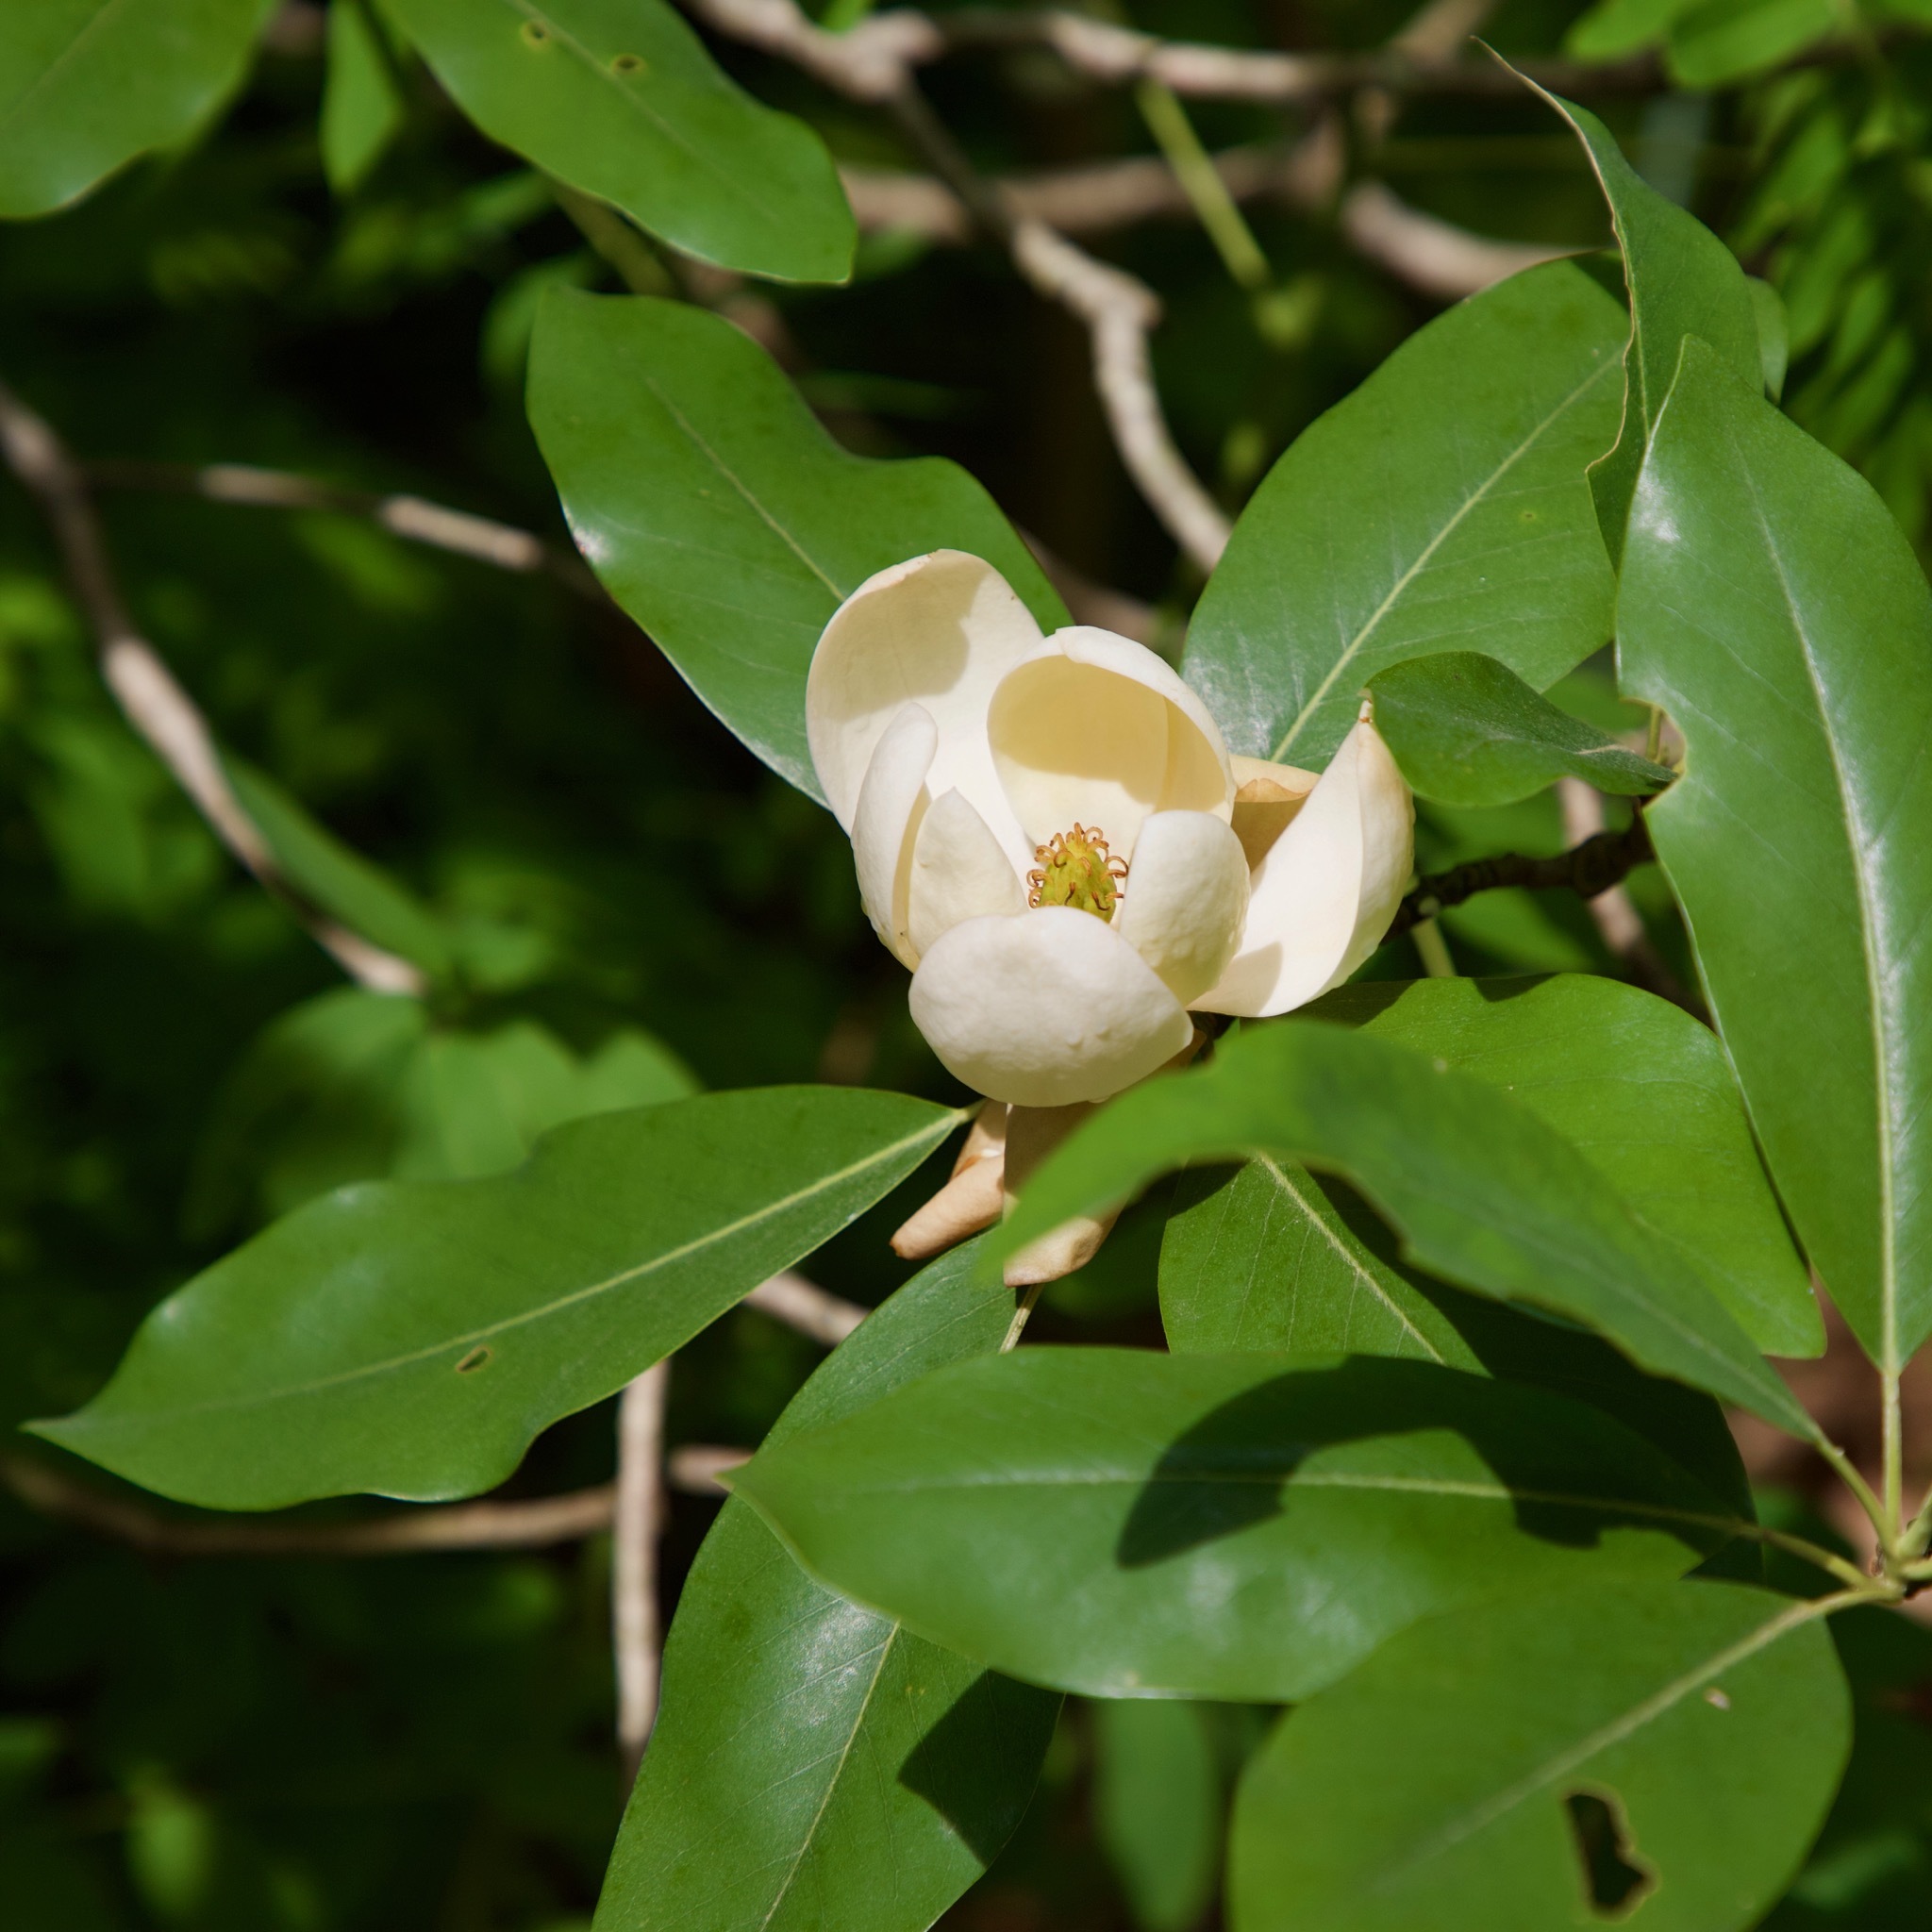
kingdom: Plantae
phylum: Tracheophyta
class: Magnoliopsida
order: Magnoliales
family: Magnoliaceae
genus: Magnolia
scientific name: Magnolia virginiana
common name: Swamp bay
